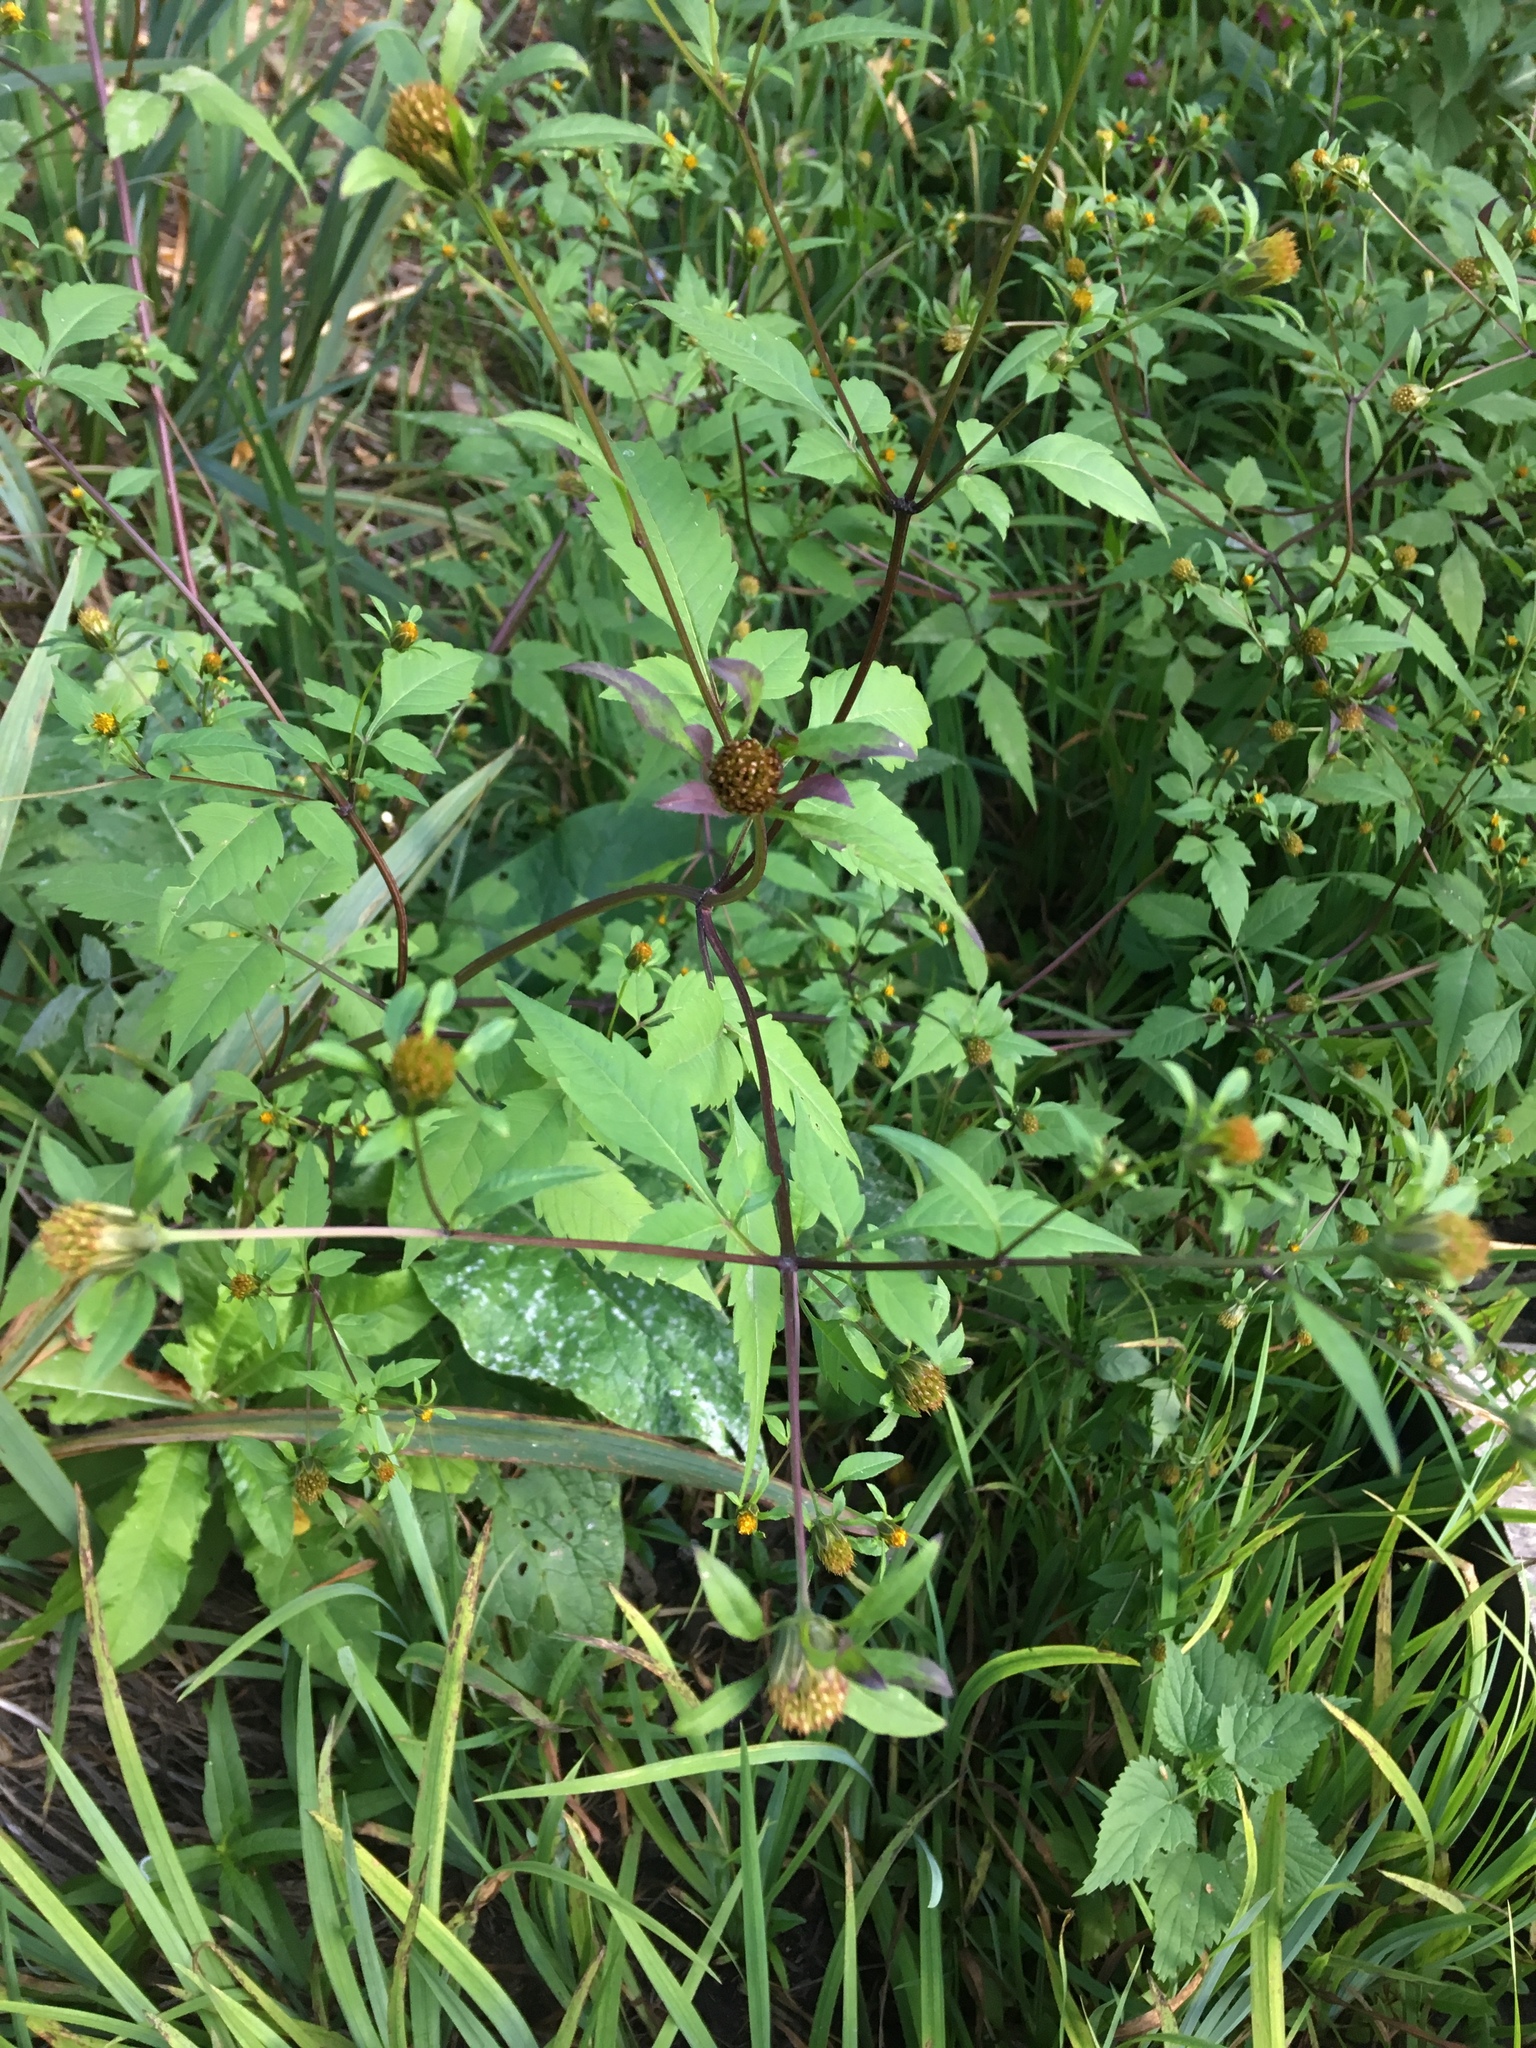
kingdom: Plantae
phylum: Tracheophyta
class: Magnoliopsida
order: Asterales
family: Asteraceae
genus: Bidens
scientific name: Bidens frondosa
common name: Beggarticks
